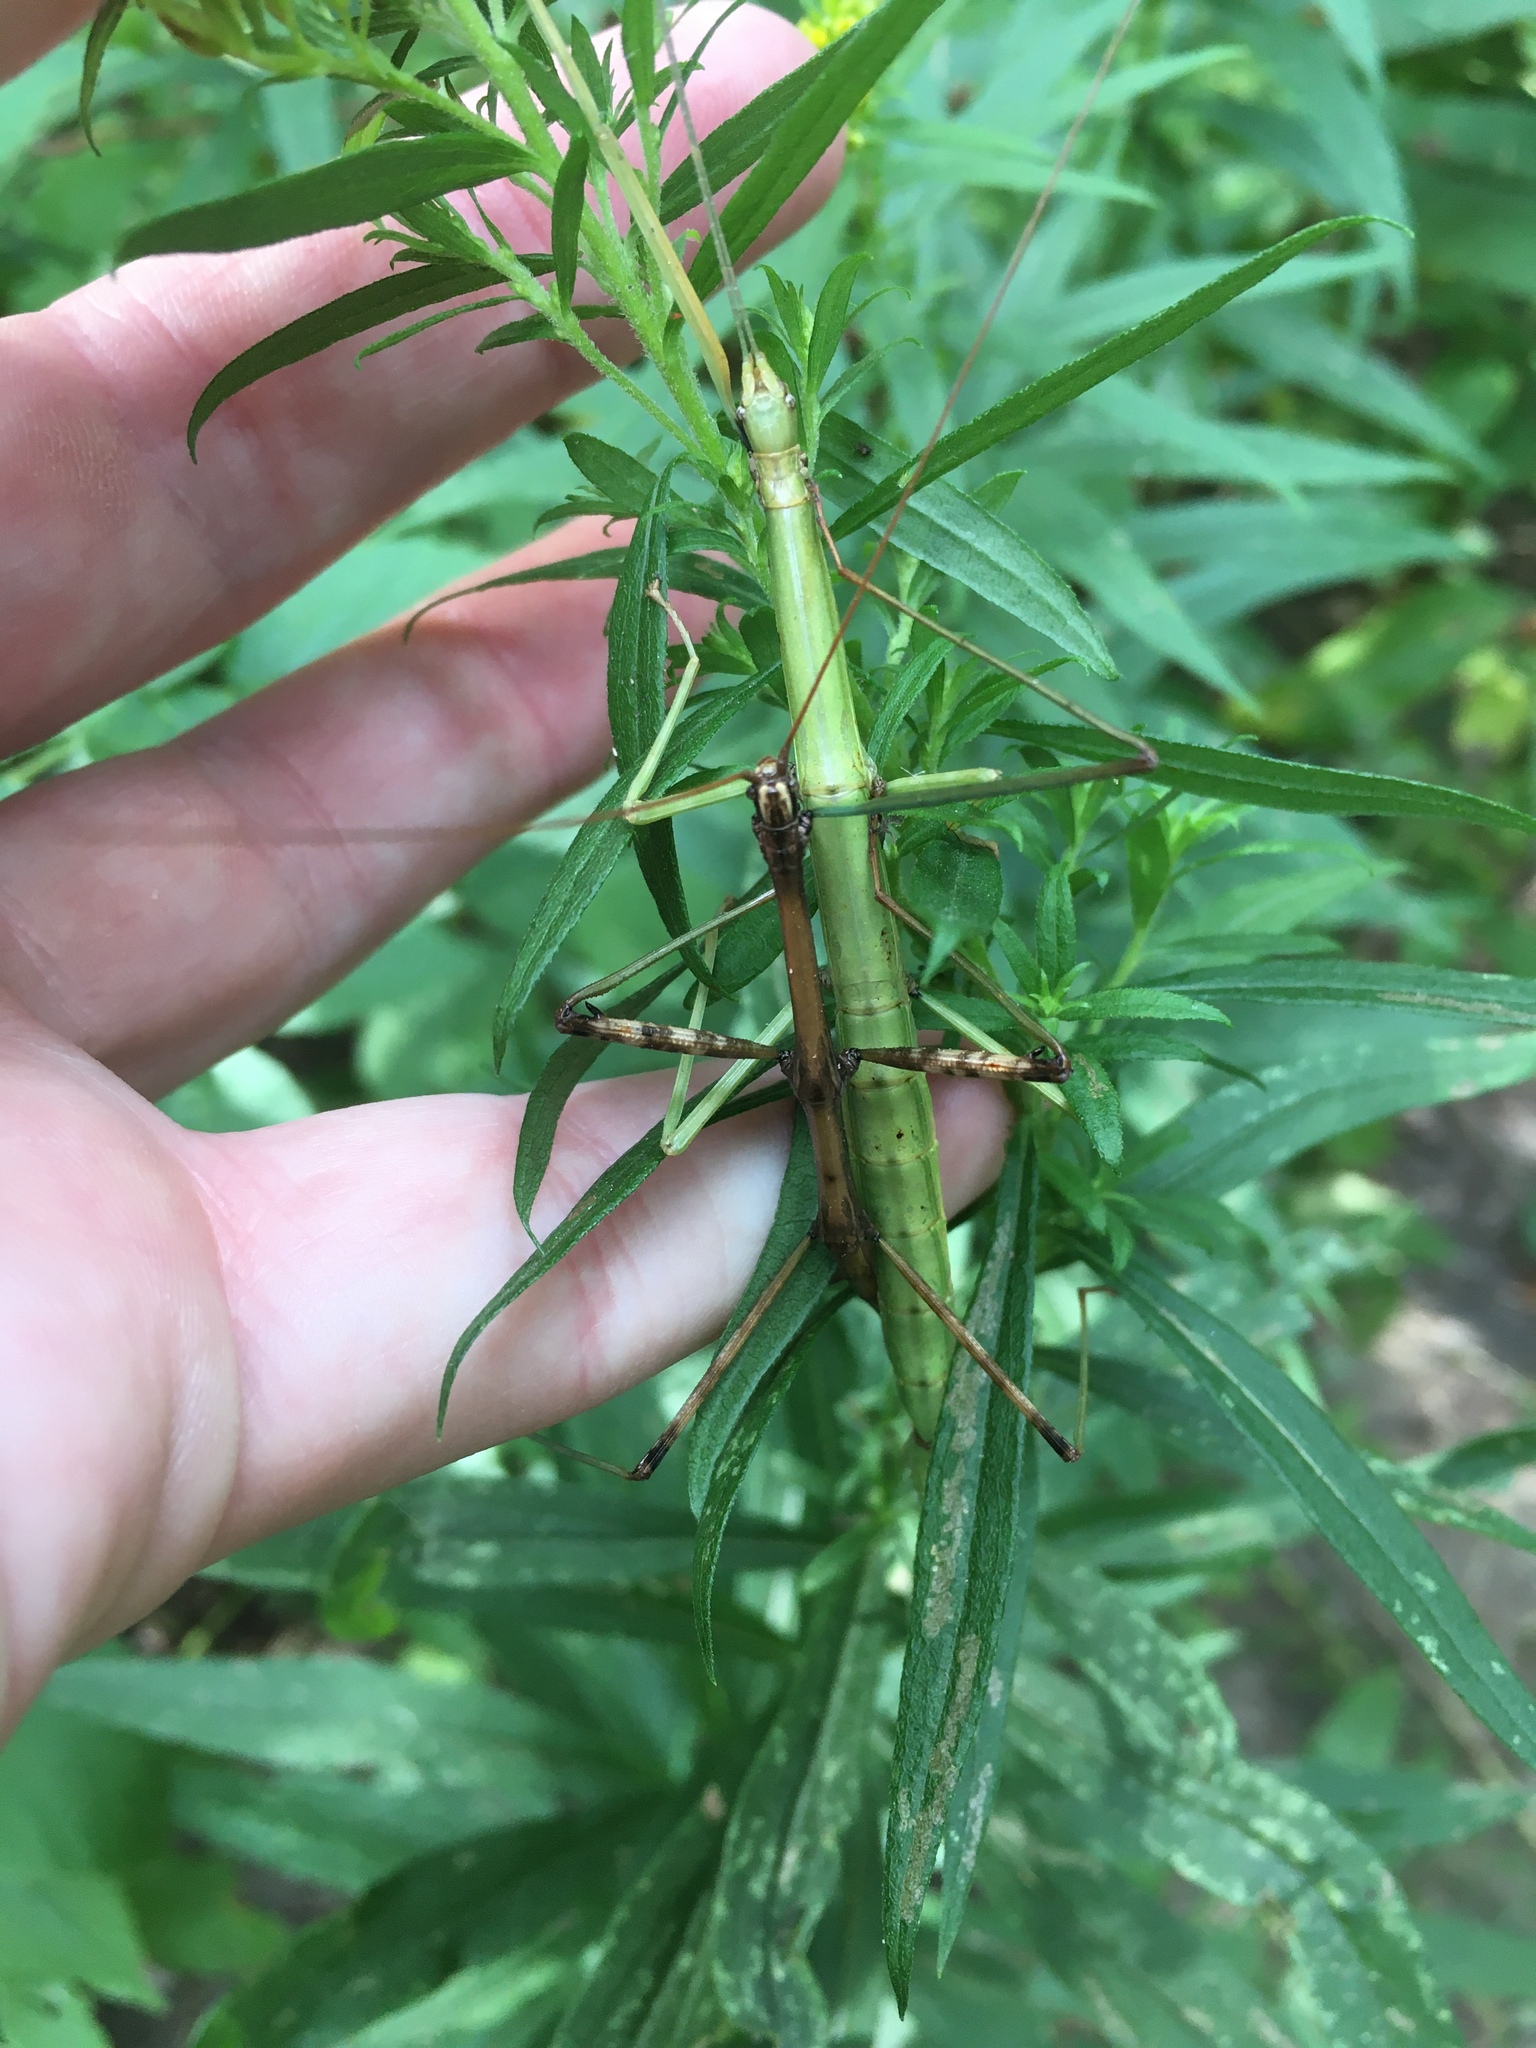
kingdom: Animalia
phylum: Arthropoda
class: Insecta
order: Phasmida
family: Diapheromeridae
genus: Diapheromera
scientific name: Diapheromera femorata
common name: Common american walkingstick
